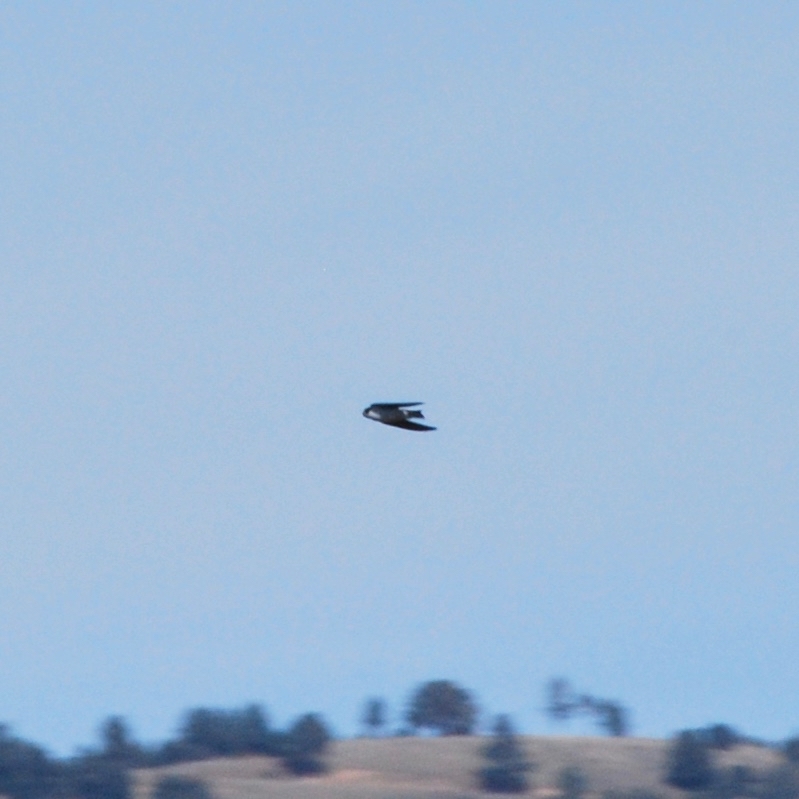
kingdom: Animalia
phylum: Chordata
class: Aves
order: Passeriformes
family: Hirundinidae
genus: Tachycineta
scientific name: Tachycineta
